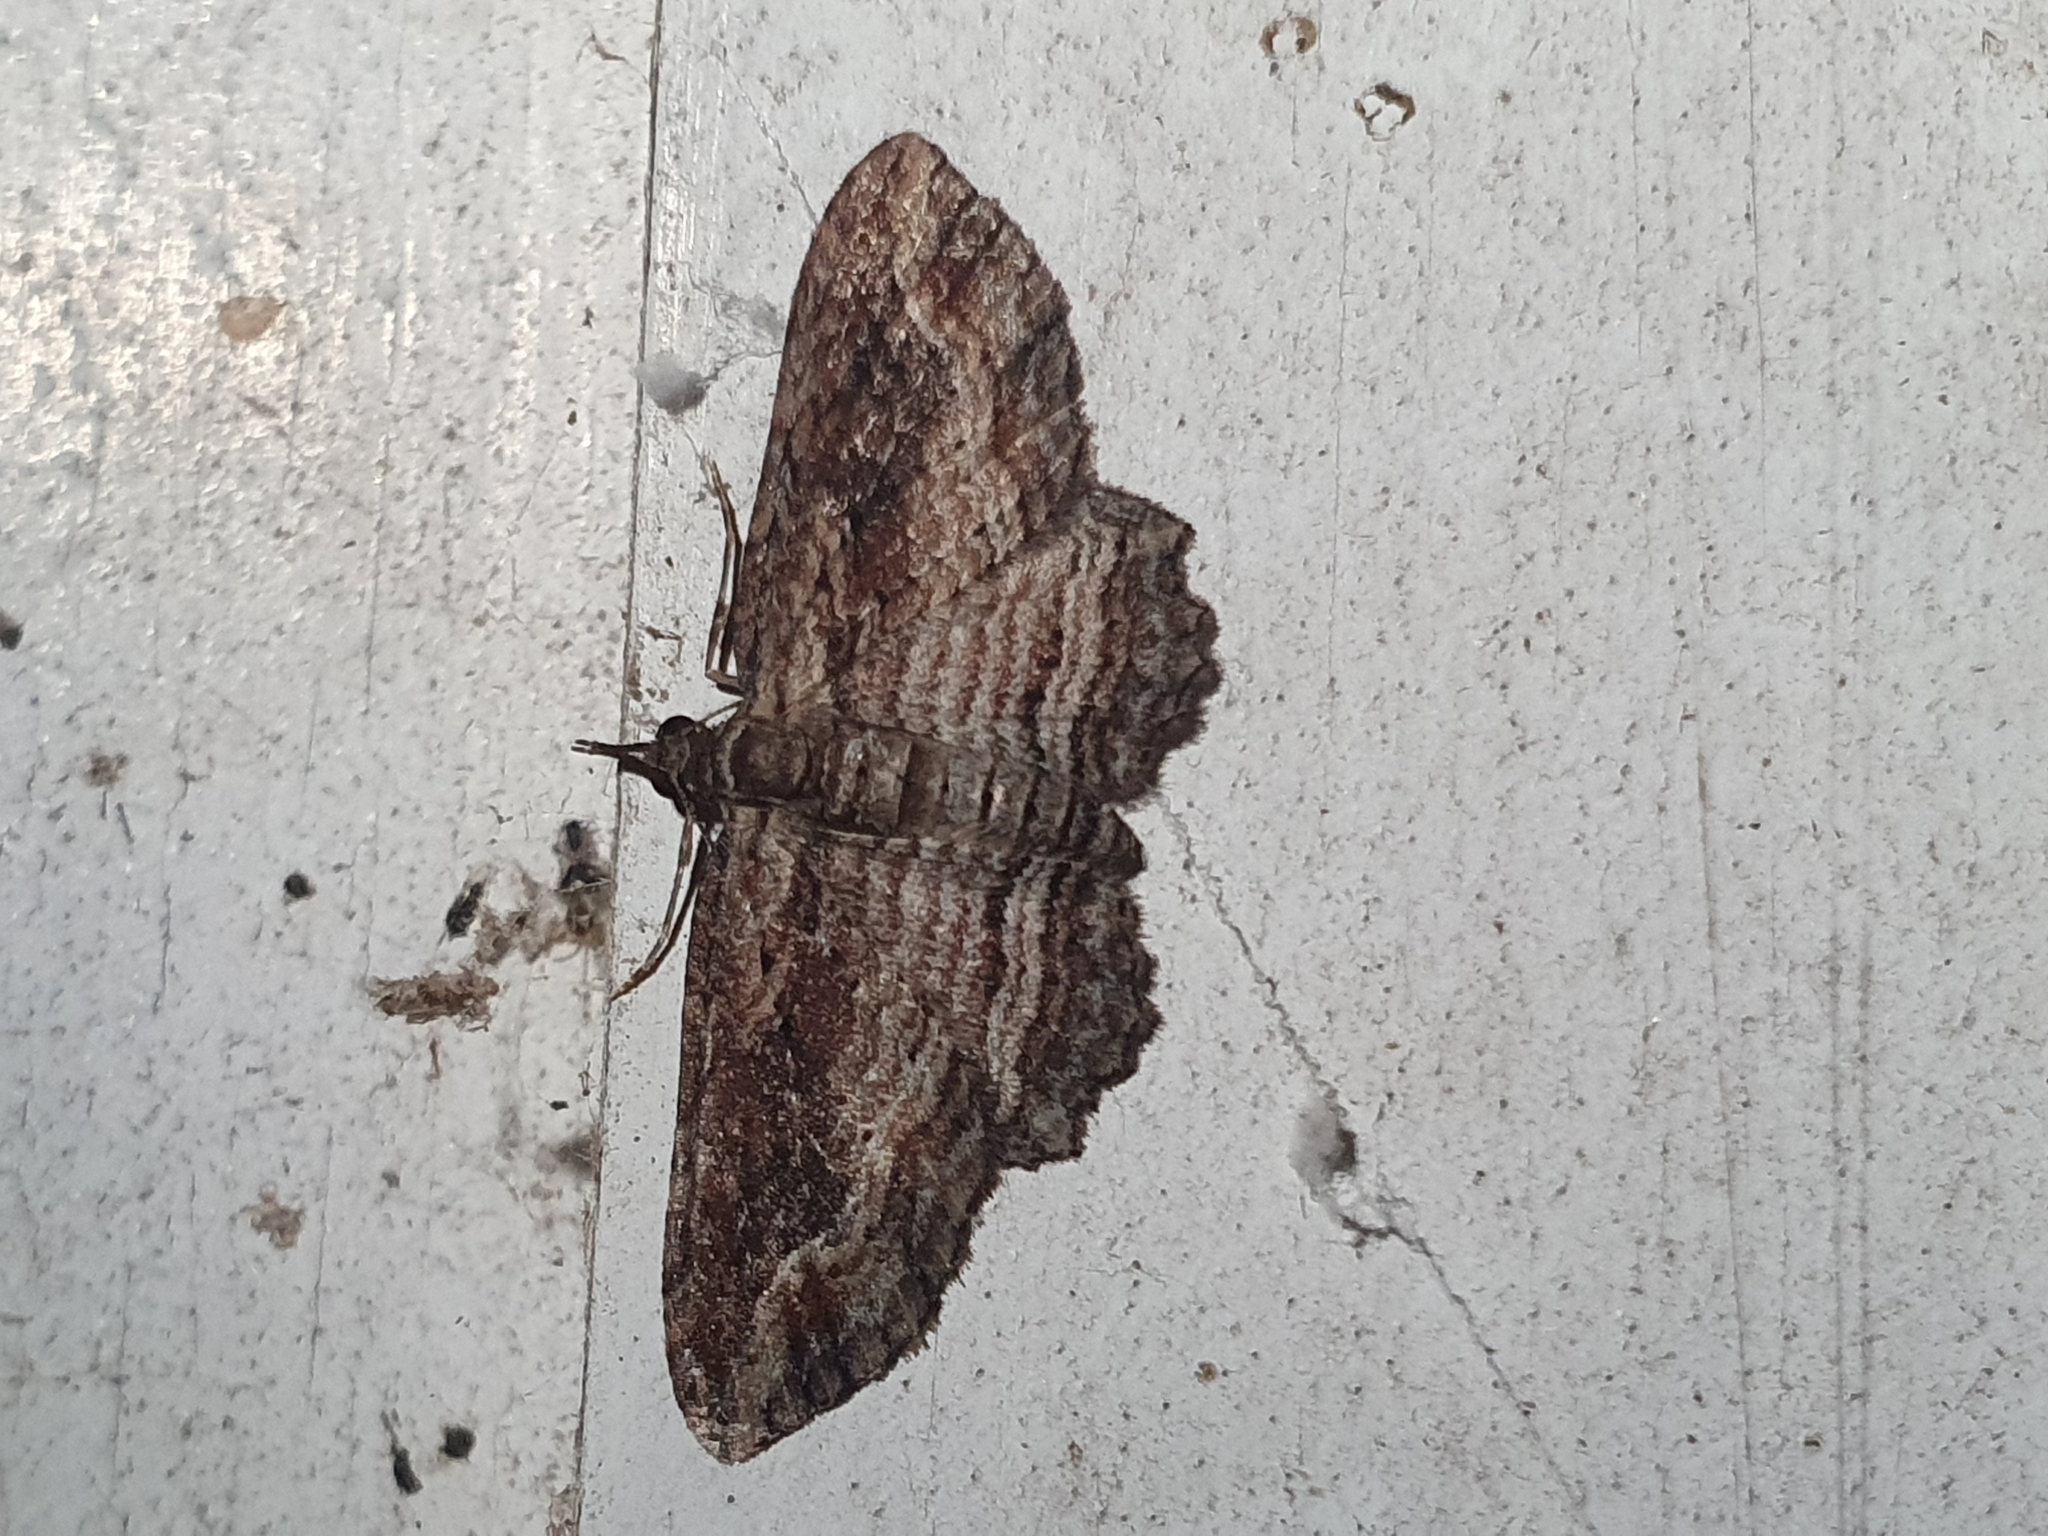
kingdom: Animalia
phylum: Arthropoda
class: Insecta
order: Lepidoptera
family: Geometridae
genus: Chloroclystis
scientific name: Chloroclystis filata
